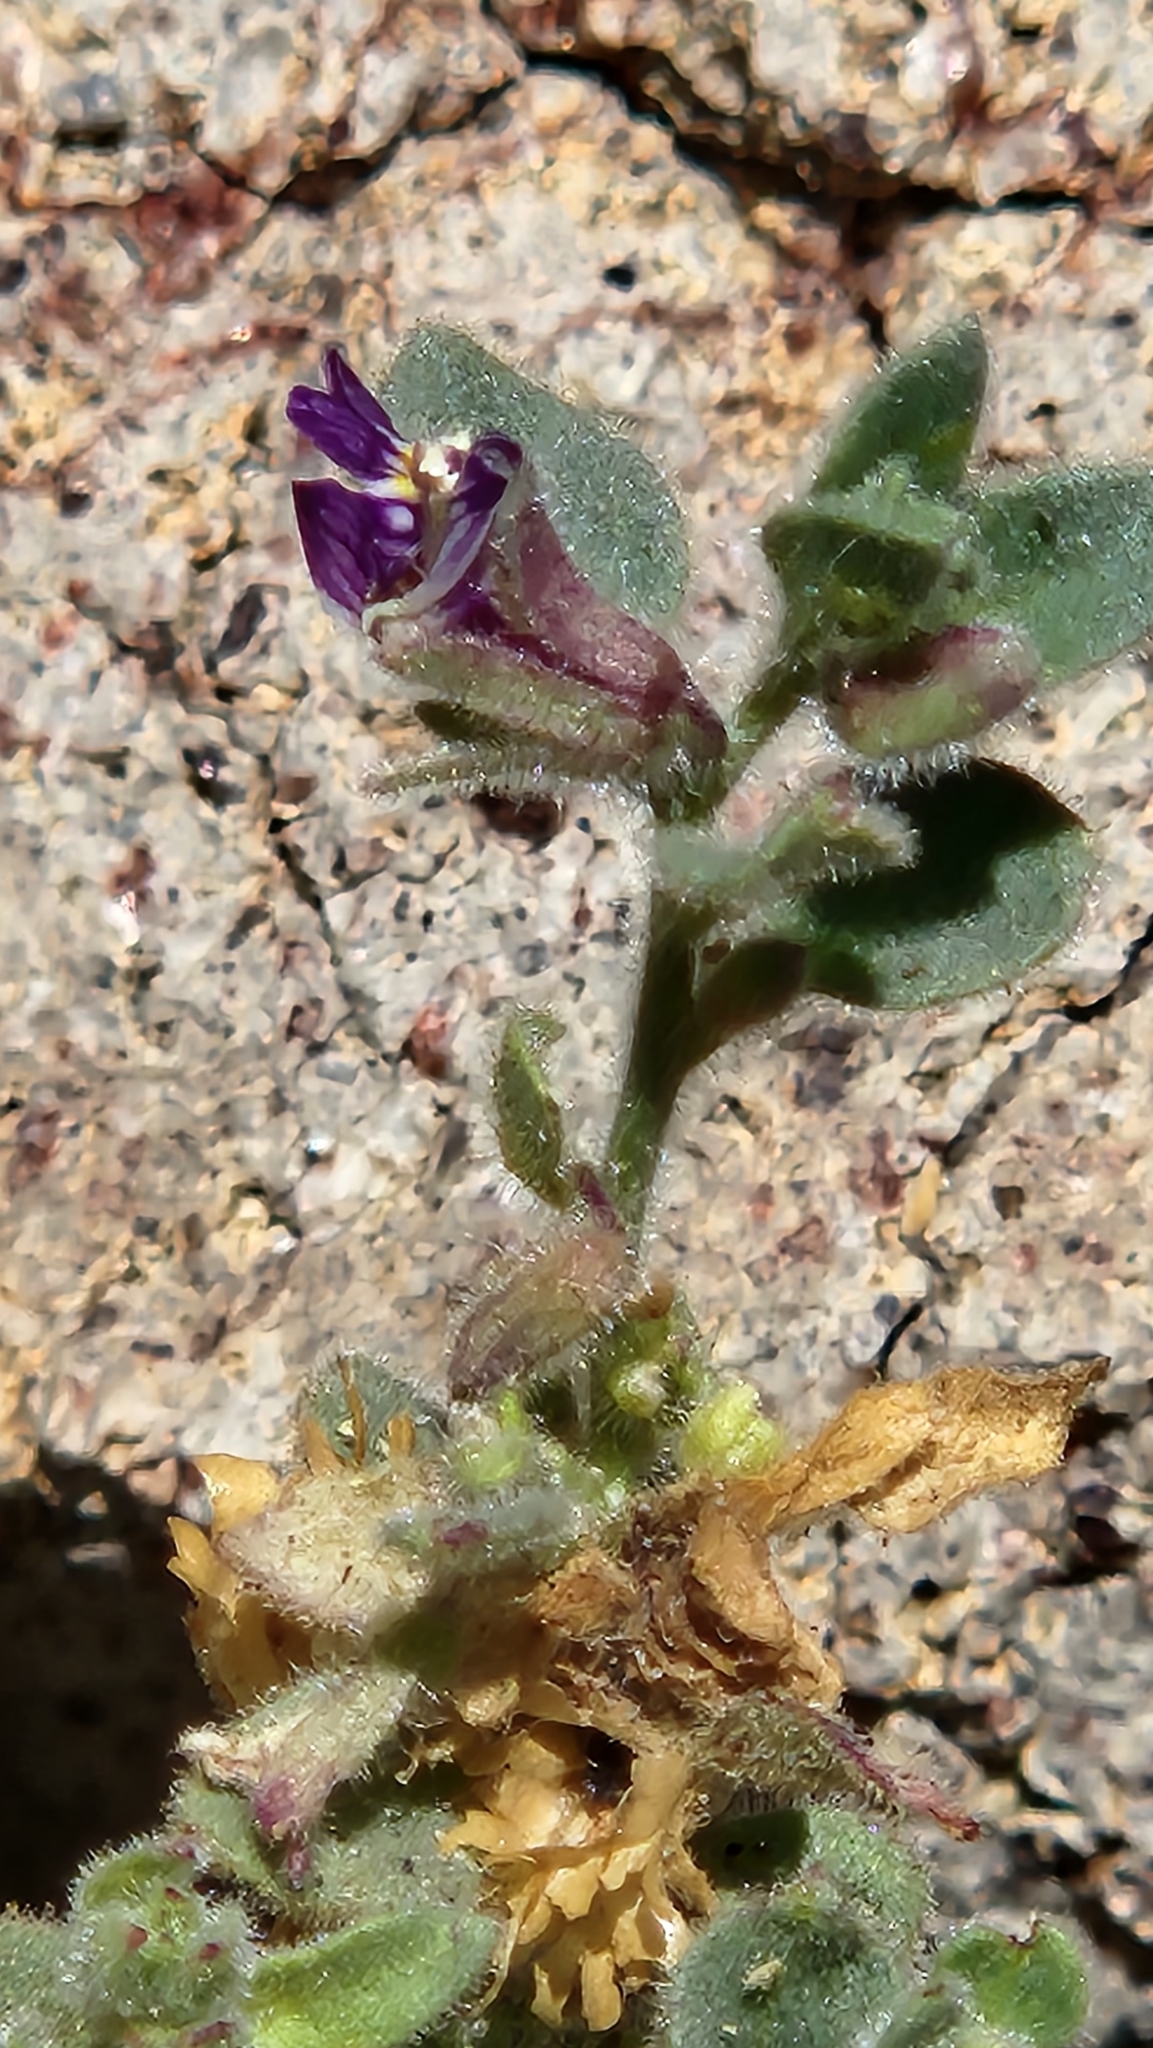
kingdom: Plantae
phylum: Tracheophyta
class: Magnoliopsida
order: Lamiales
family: Plantaginaceae
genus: Pseudorontium
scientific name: Pseudorontium cyathiferum
